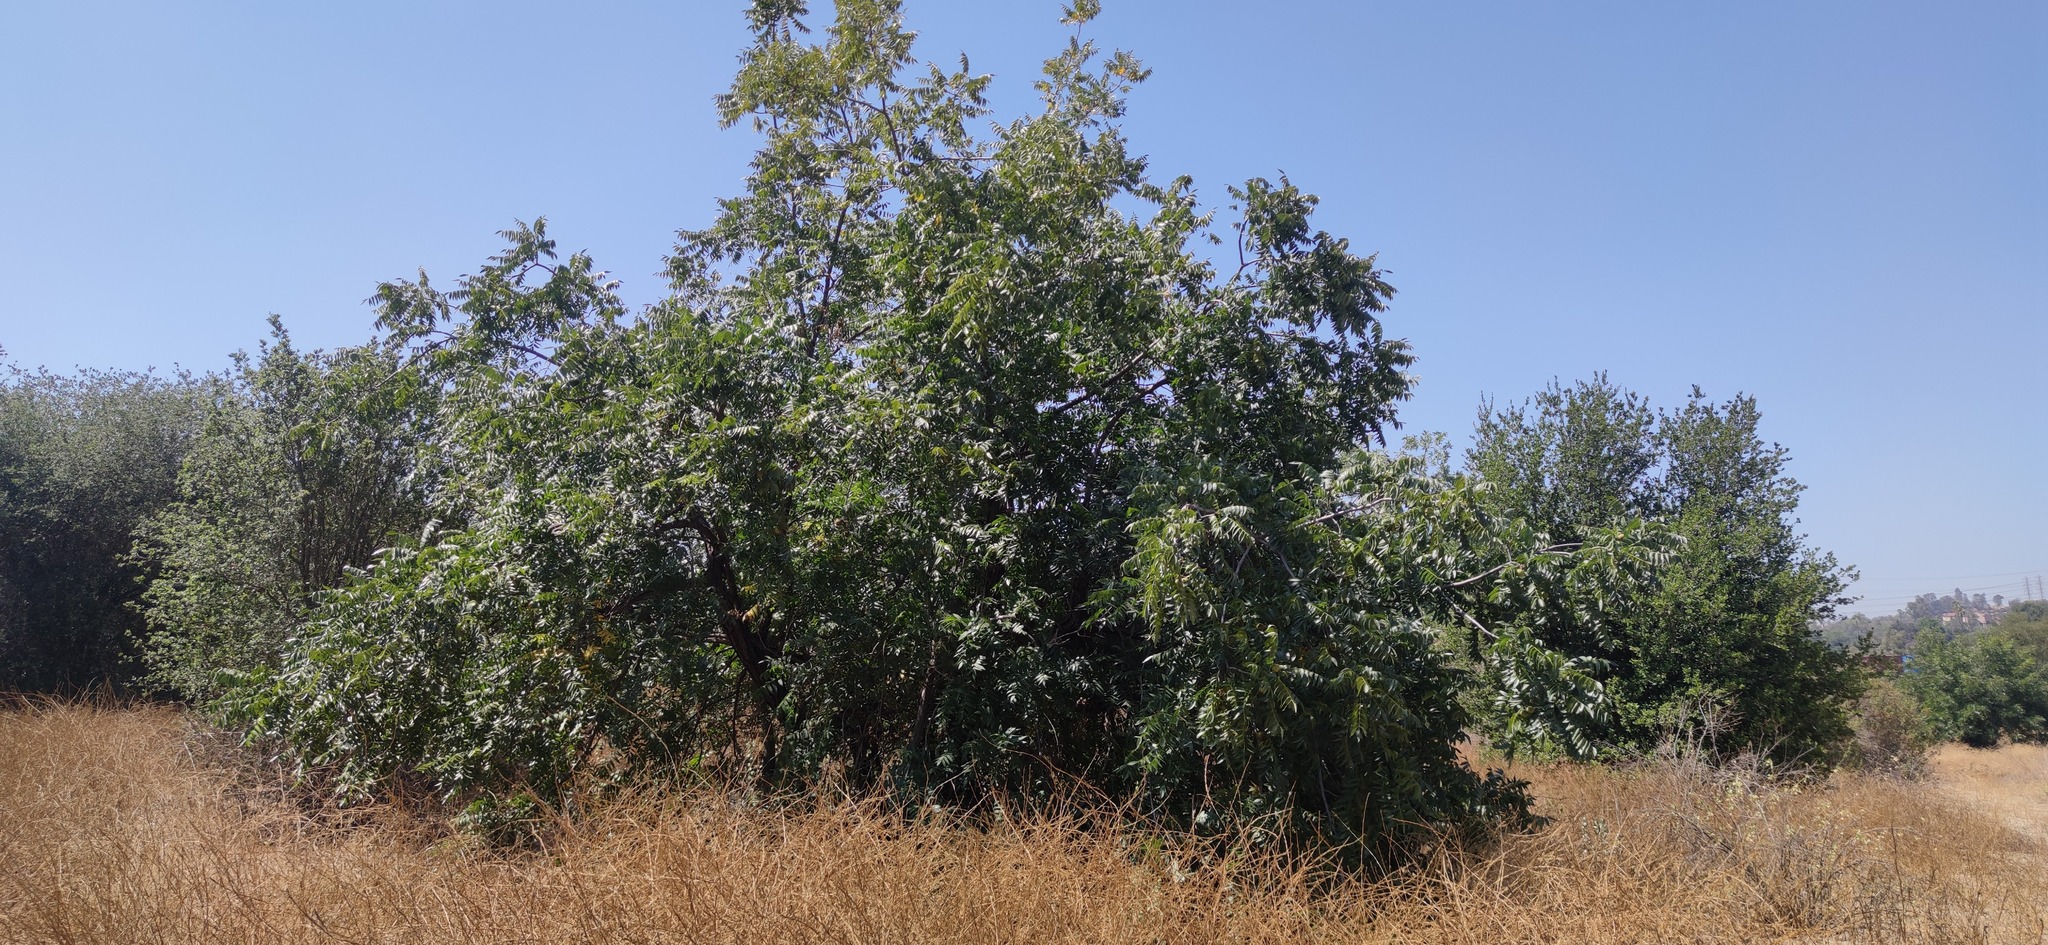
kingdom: Plantae
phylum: Tracheophyta
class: Magnoliopsida
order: Fagales
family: Juglandaceae
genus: Juglans
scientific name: Juglans californica
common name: Southern california black walnut
